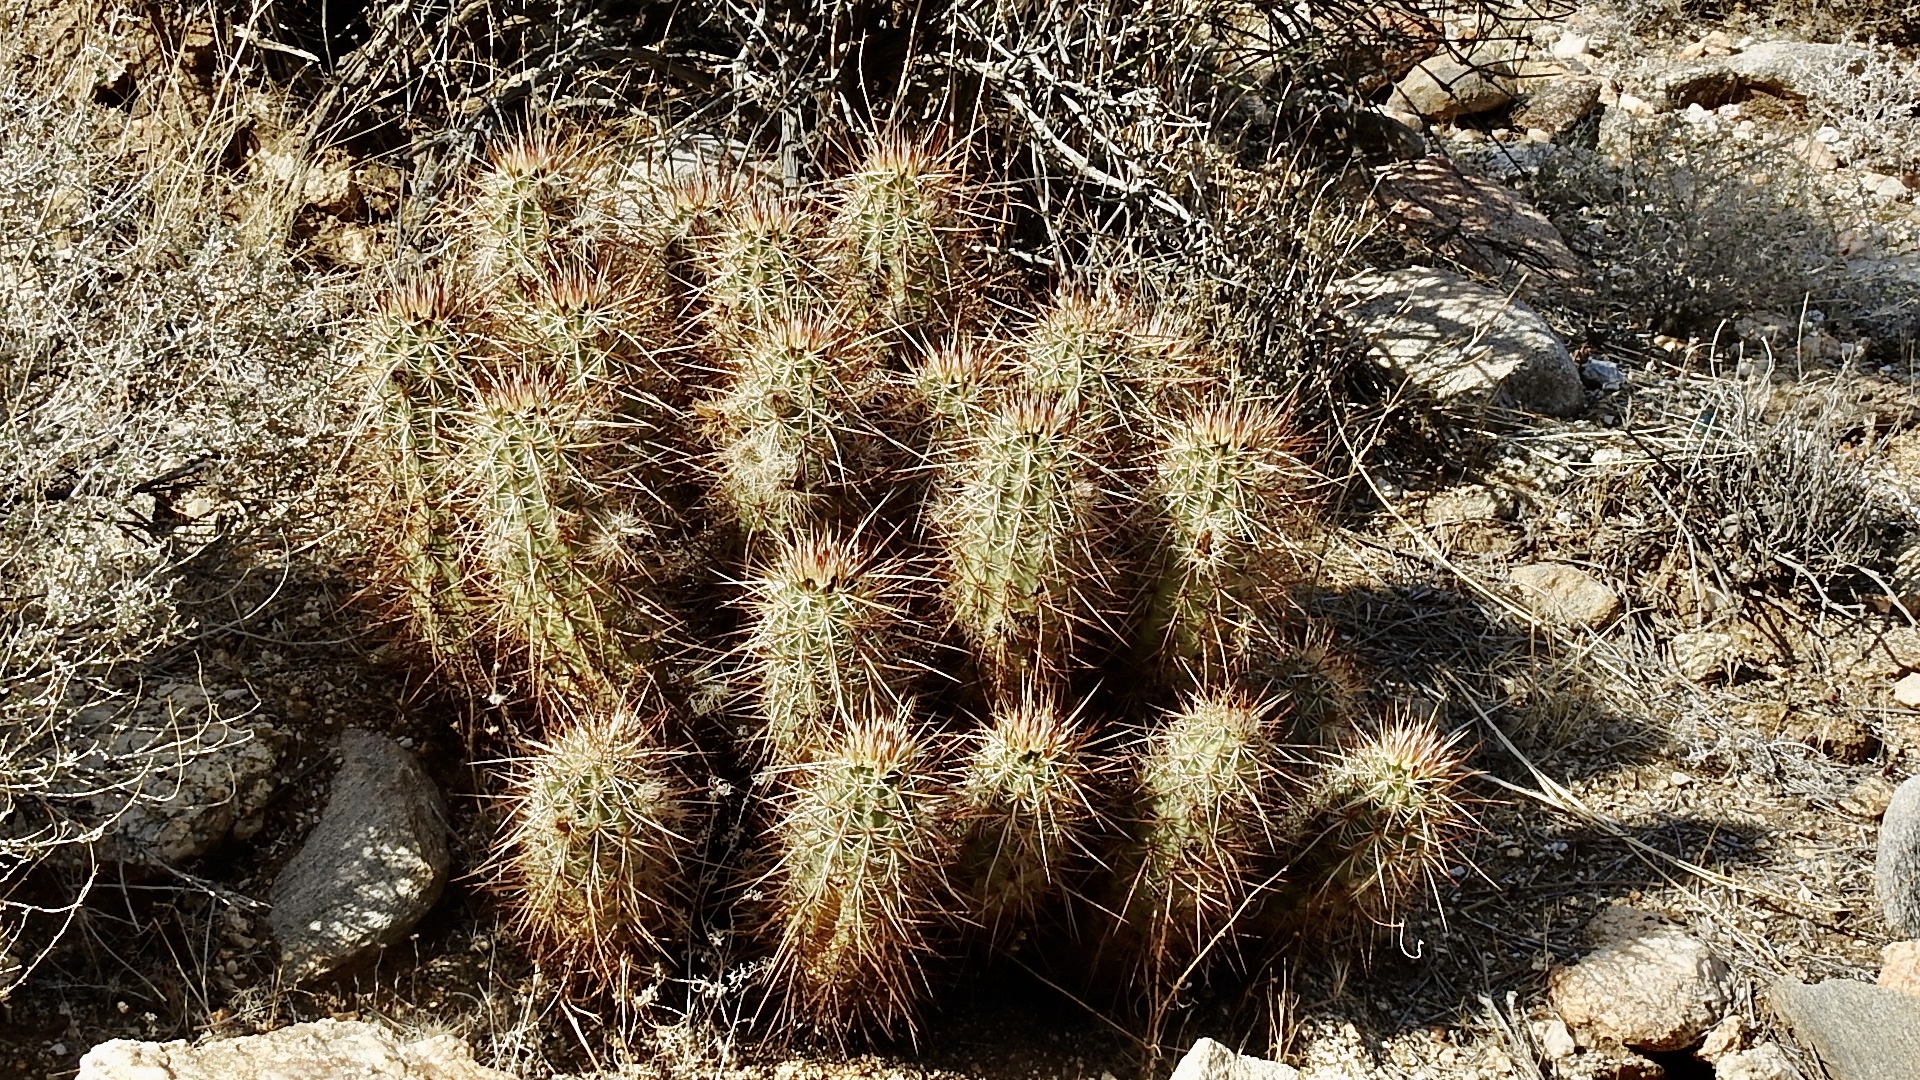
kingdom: Plantae
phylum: Tracheophyta
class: Magnoliopsida
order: Caryophyllales
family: Cactaceae
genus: Echinocereus
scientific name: Echinocereus engelmannii
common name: Engelmann's hedgehog cactus
